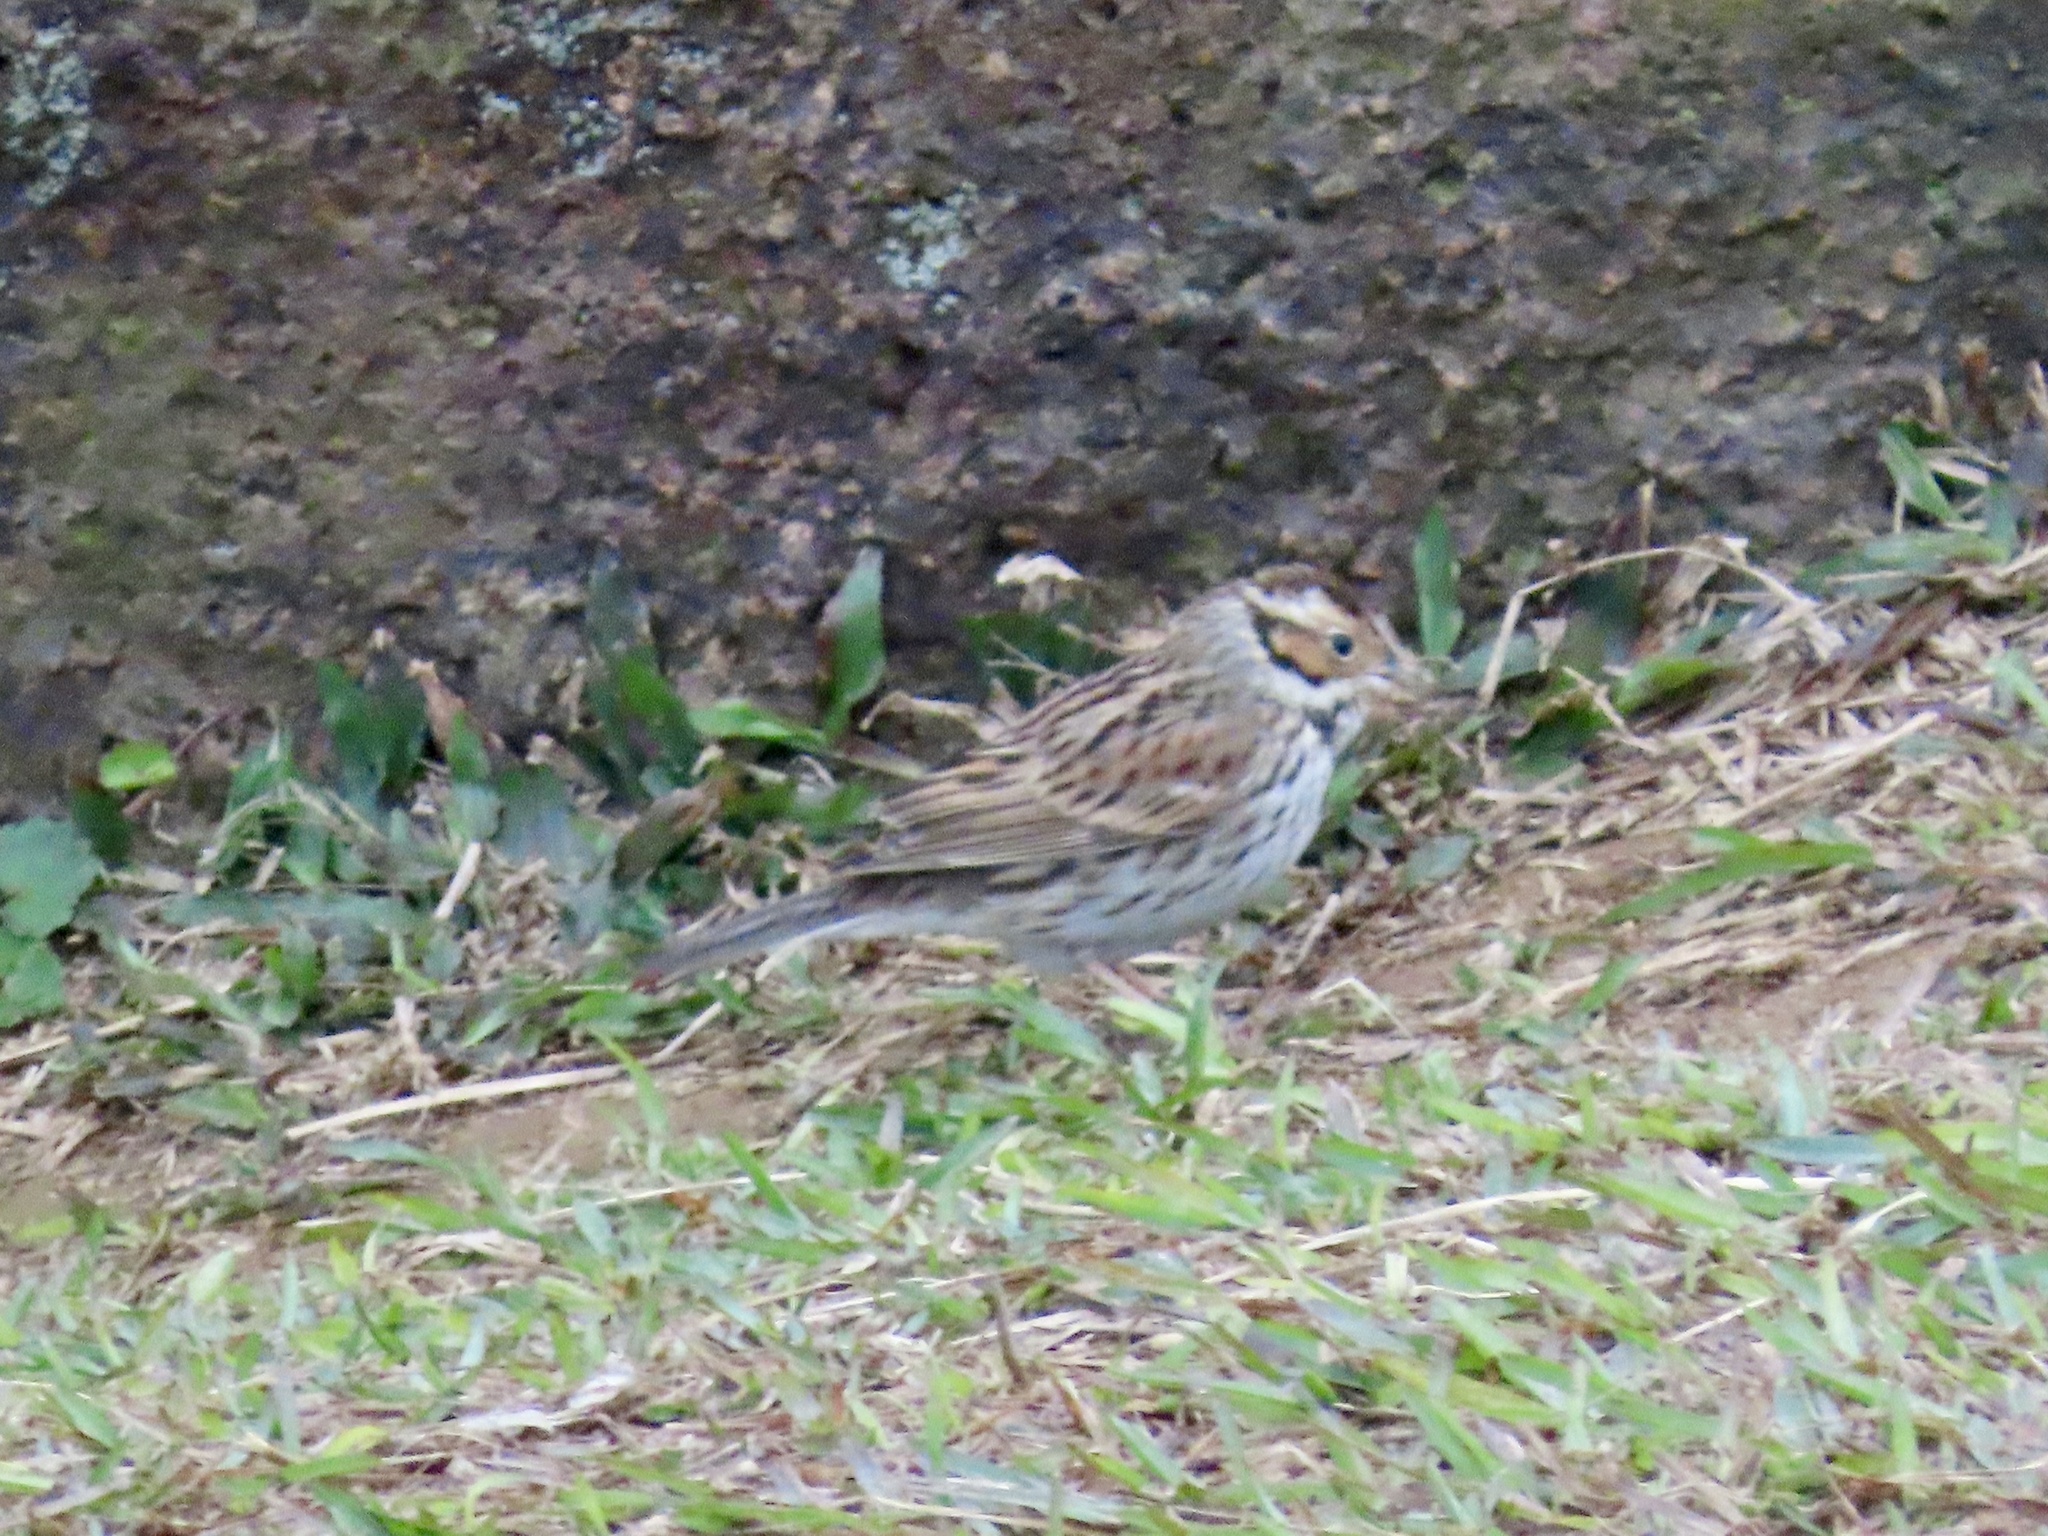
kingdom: Animalia
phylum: Chordata
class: Aves
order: Passeriformes
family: Emberizidae
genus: Emberiza
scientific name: Emberiza pusilla
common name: Little bunting
